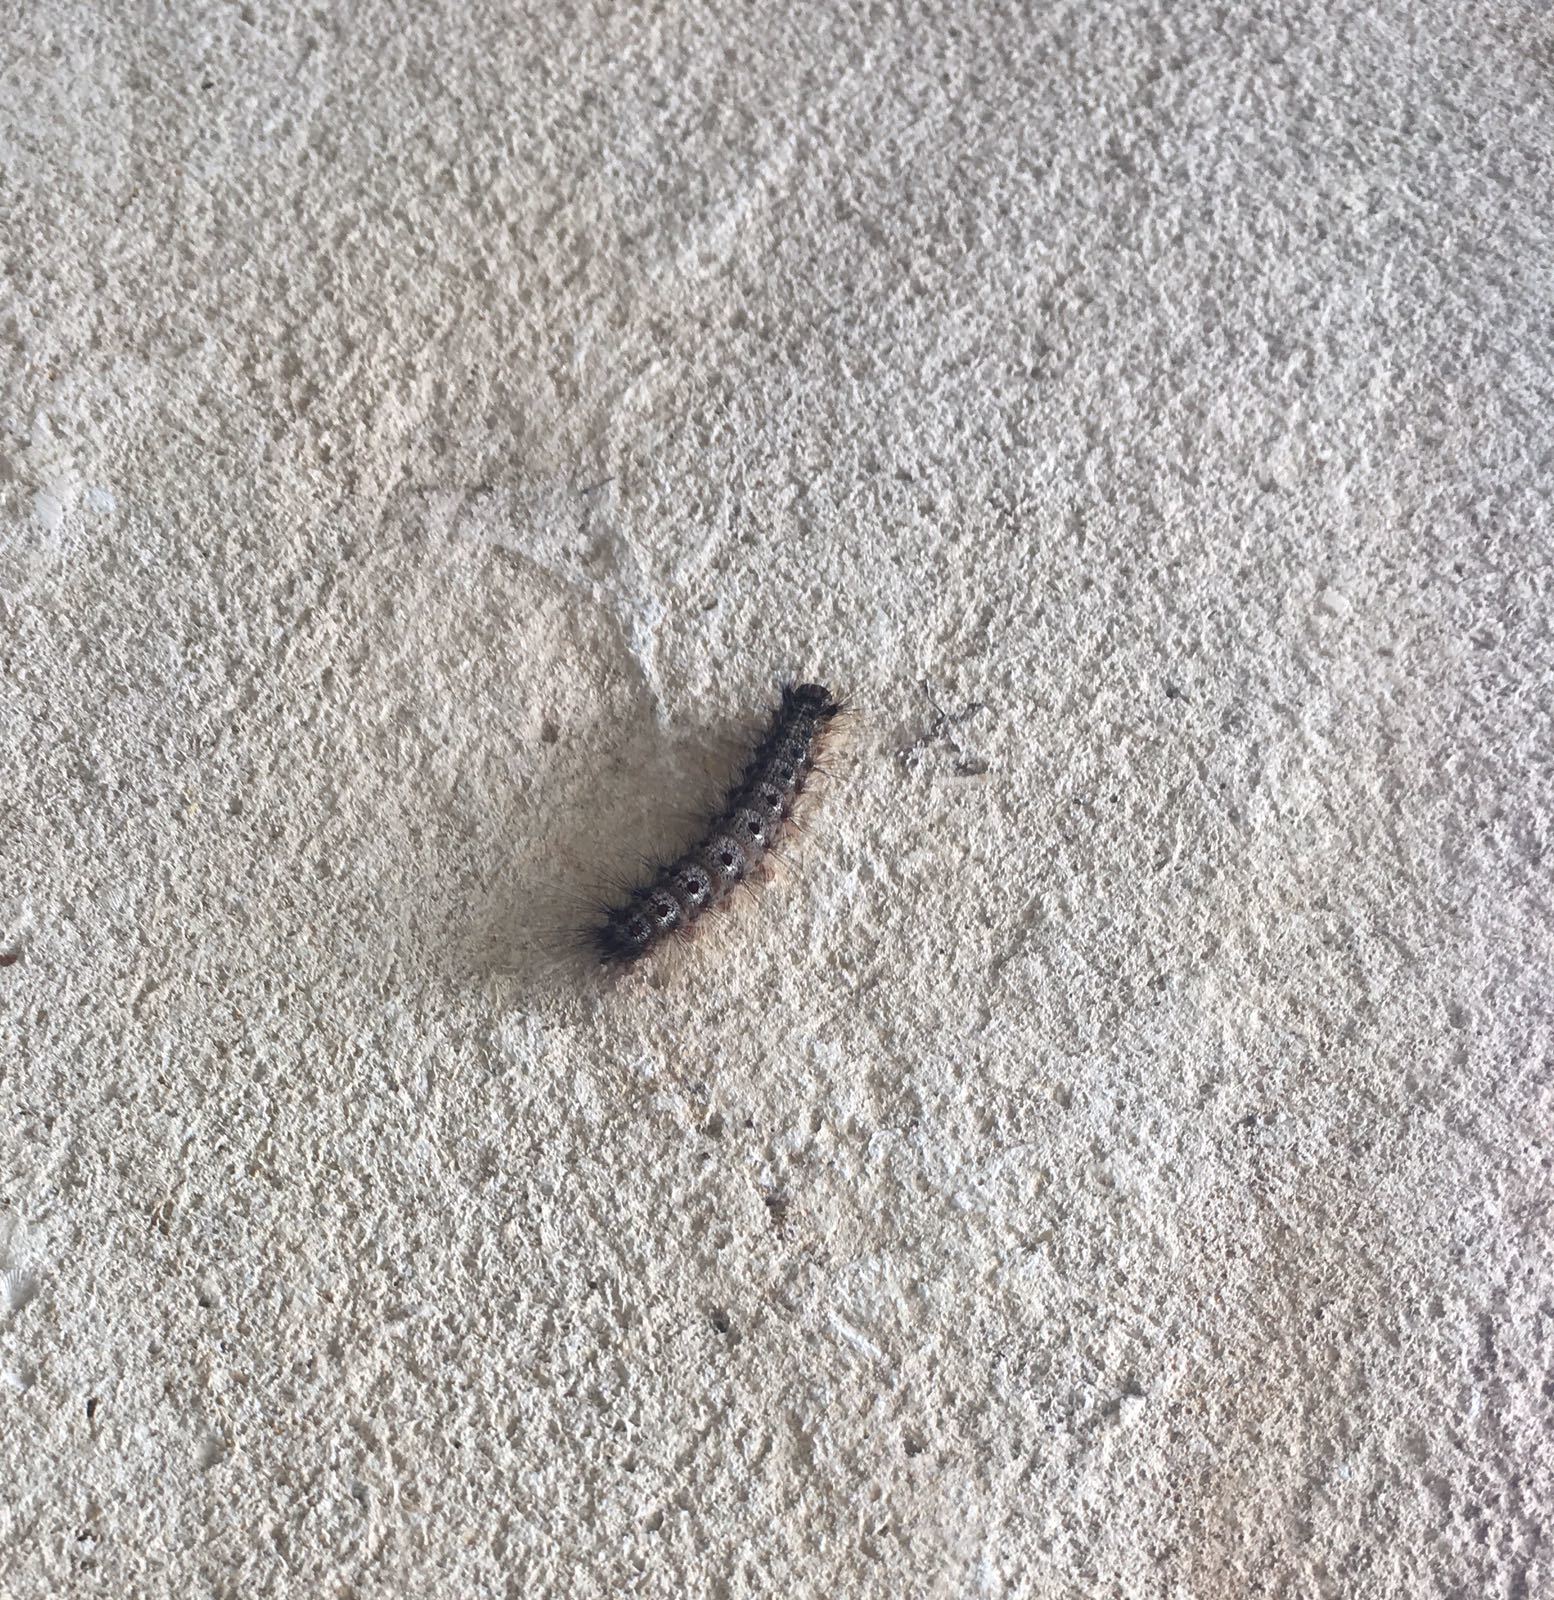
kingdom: Animalia
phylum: Arthropoda
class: Insecta
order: Lepidoptera
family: Erebidae
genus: Lymantria
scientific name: Lymantria dispar
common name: Gypsy moth
